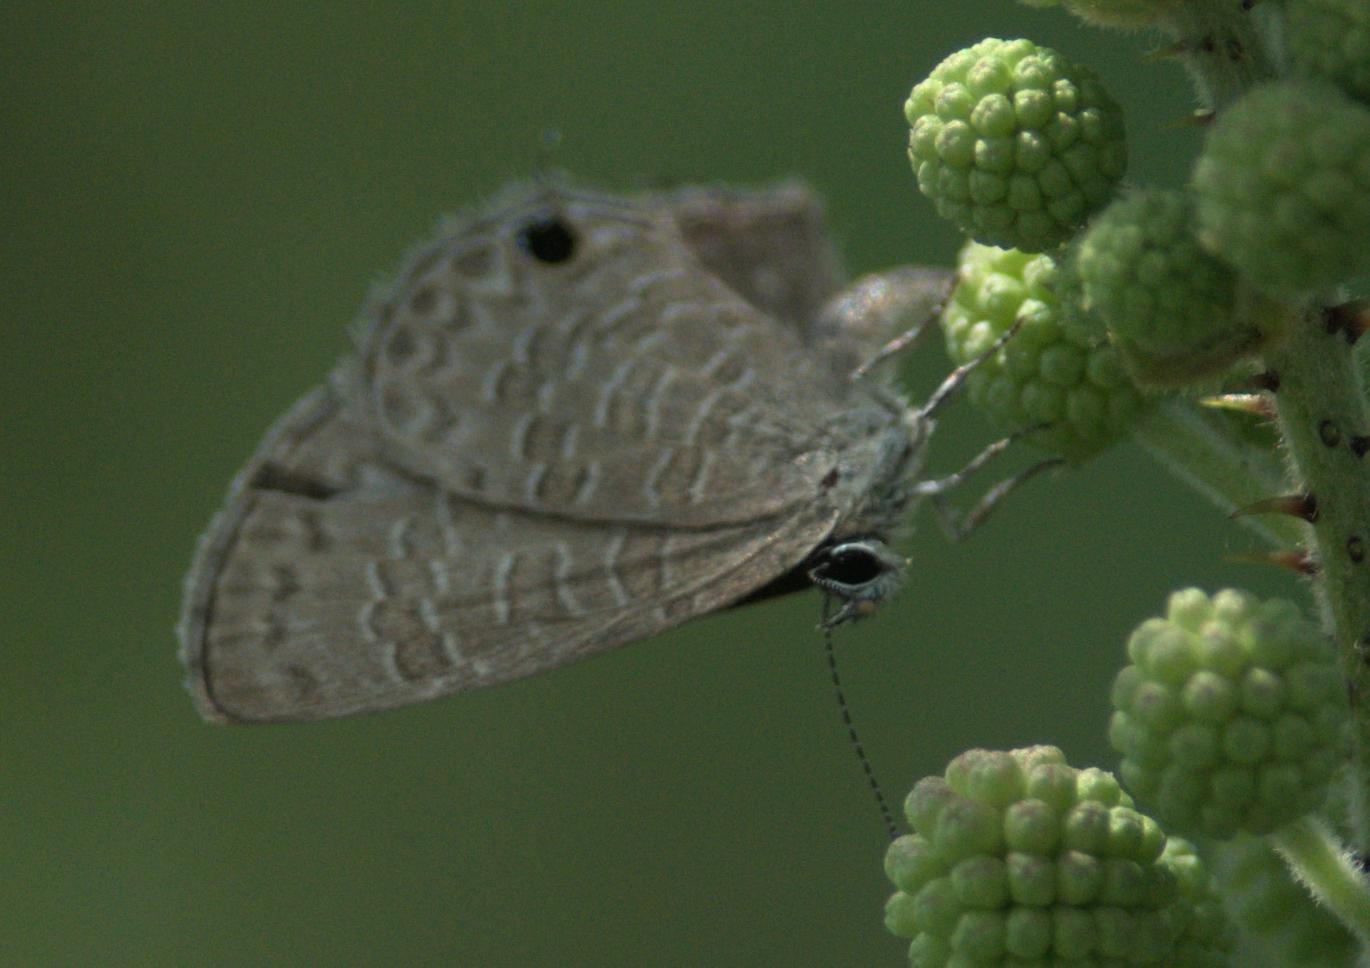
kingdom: Animalia
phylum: Arthropoda
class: Insecta
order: Lepidoptera
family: Lycaenidae
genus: Prosotas
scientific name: Prosotas nora
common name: Common line blue
